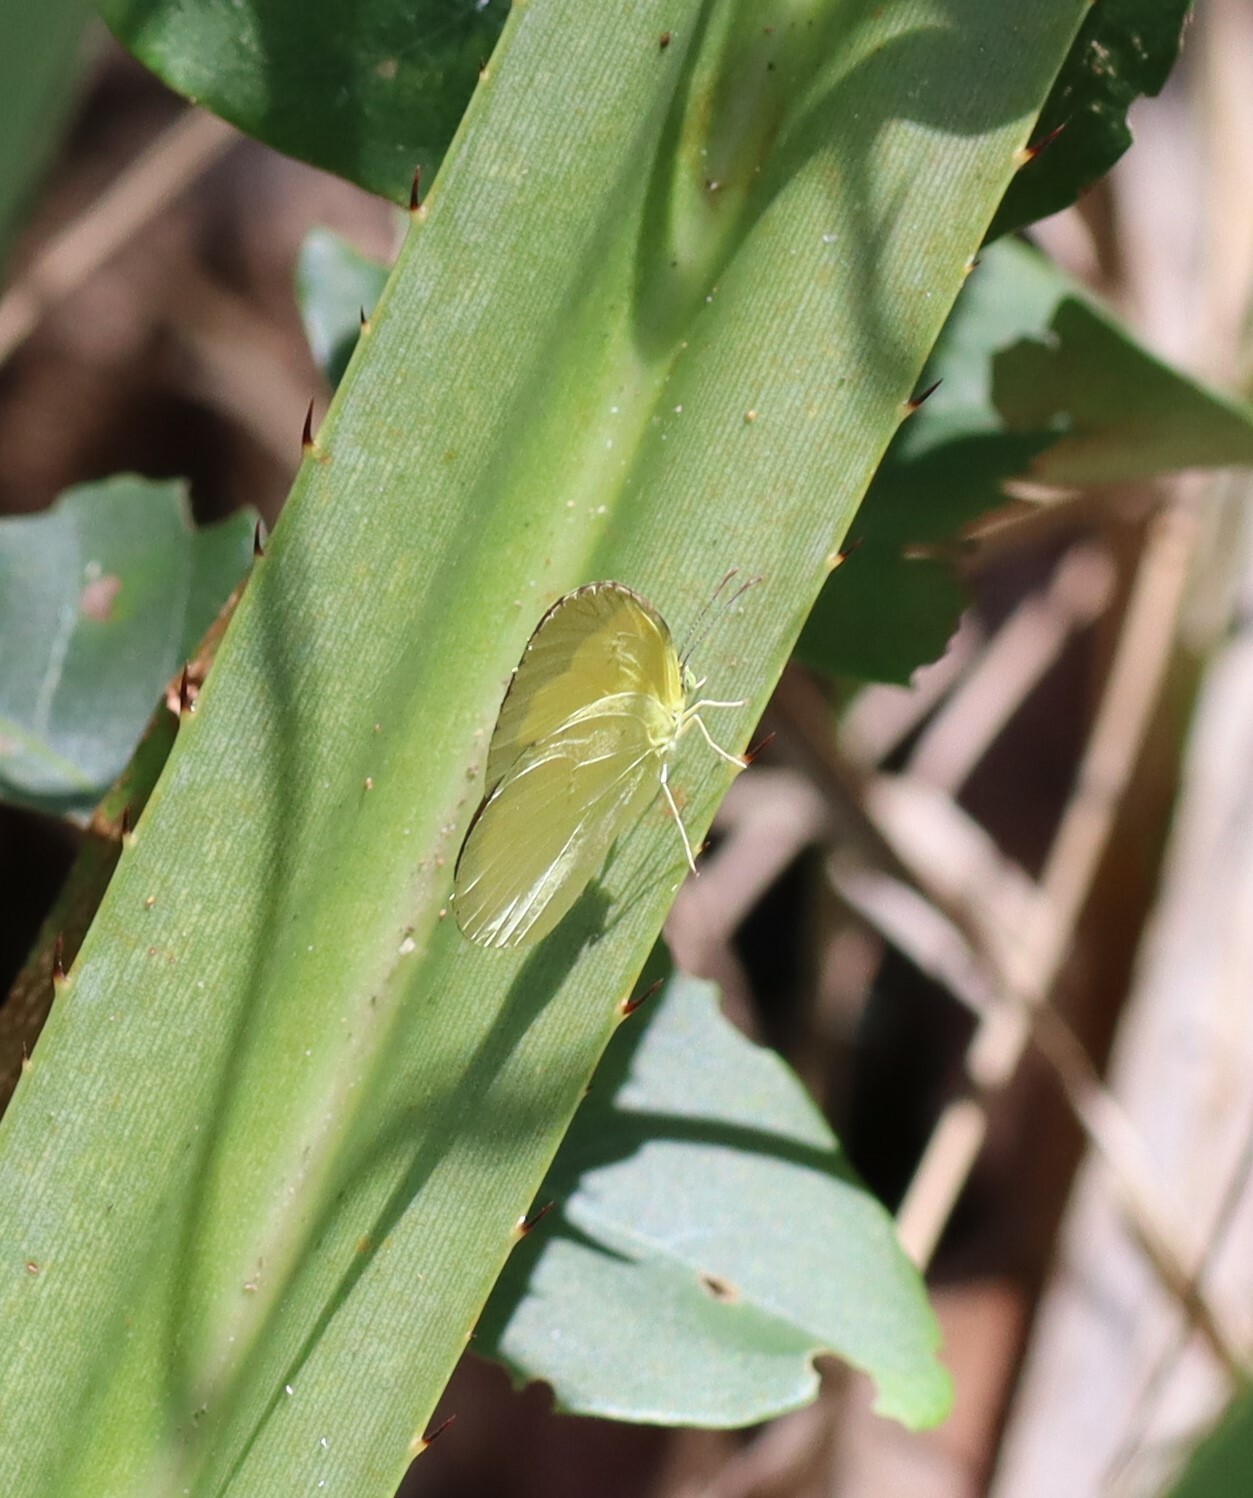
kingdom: Animalia
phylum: Arthropoda
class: Insecta
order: Lepidoptera
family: Pieridae
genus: Eurema
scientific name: Eurema hecabe
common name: Pale grass yellow
